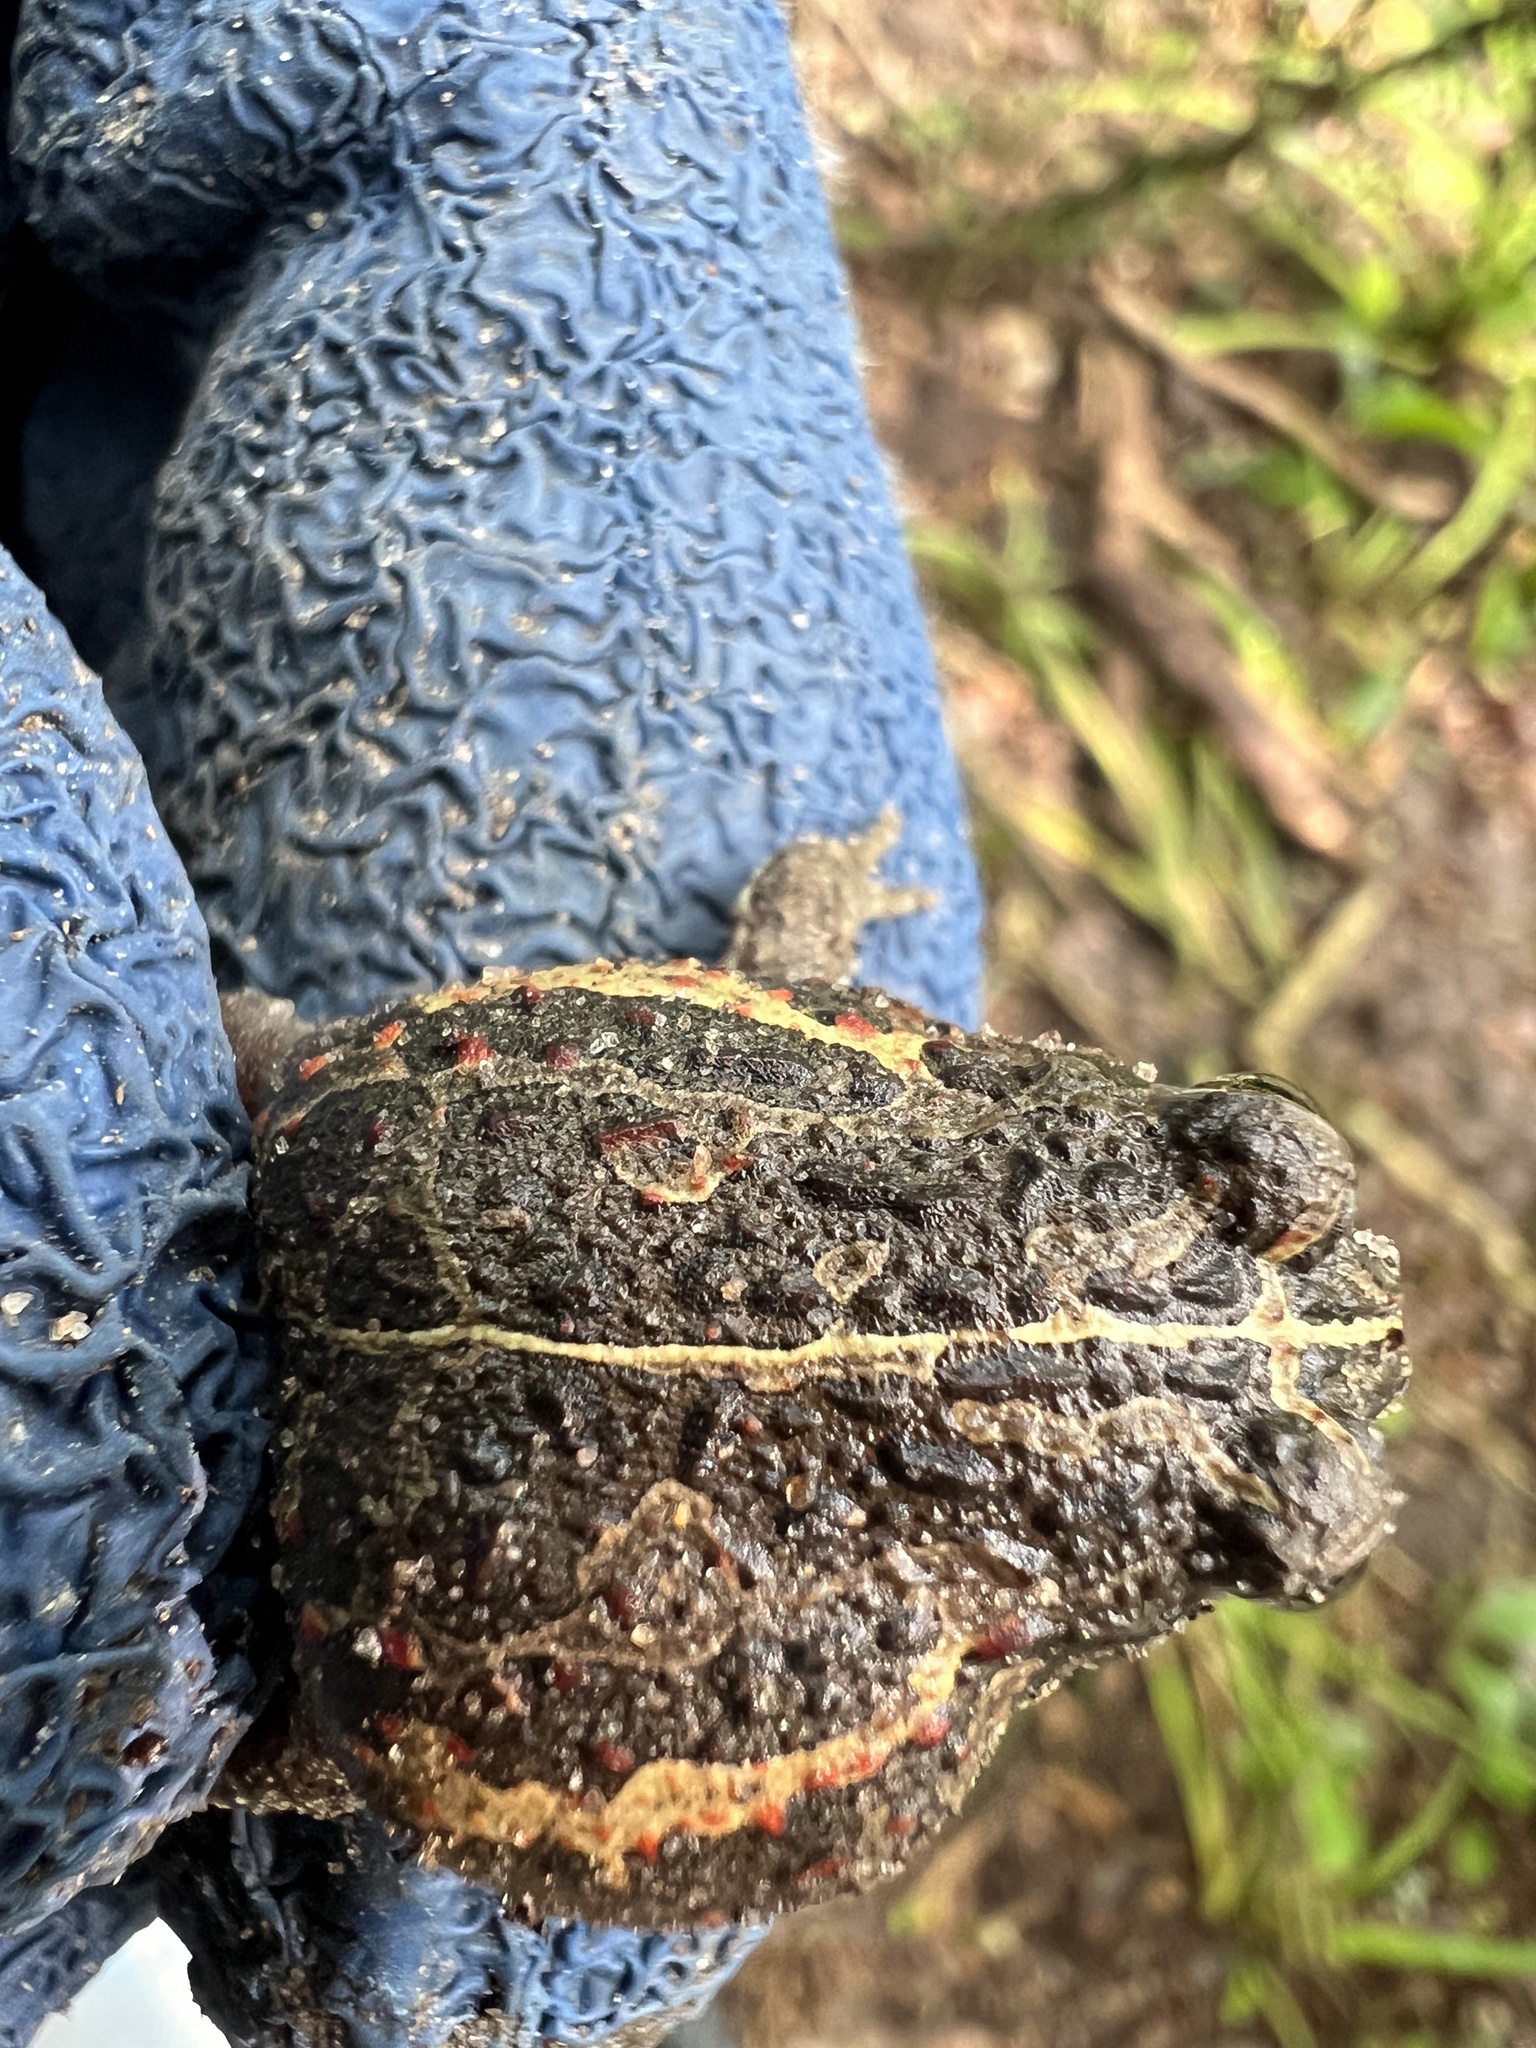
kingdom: Animalia
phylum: Chordata
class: Amphibia
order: Anura
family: Odontophrynidae
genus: Odontophrynus
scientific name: Odontophrynus
